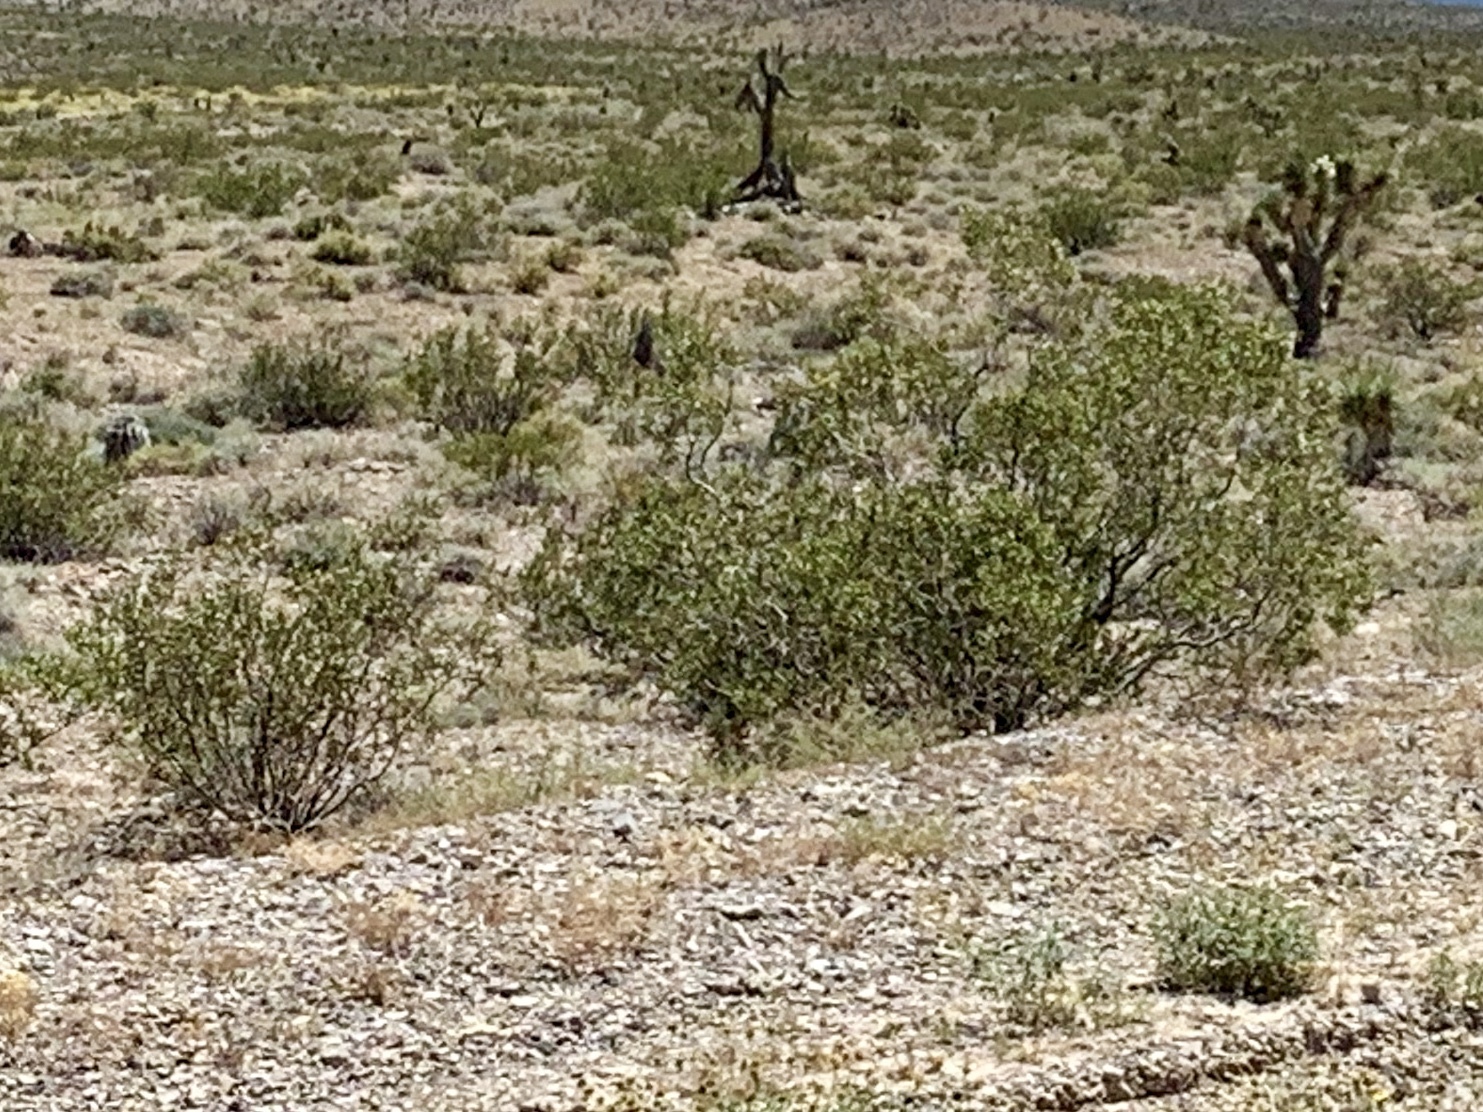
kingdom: Plantae
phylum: Tracheophyta
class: Magnoliopsida
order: Zygophyllales
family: Zygophyllaceae
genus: Larrea
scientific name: Larrea tridentata
